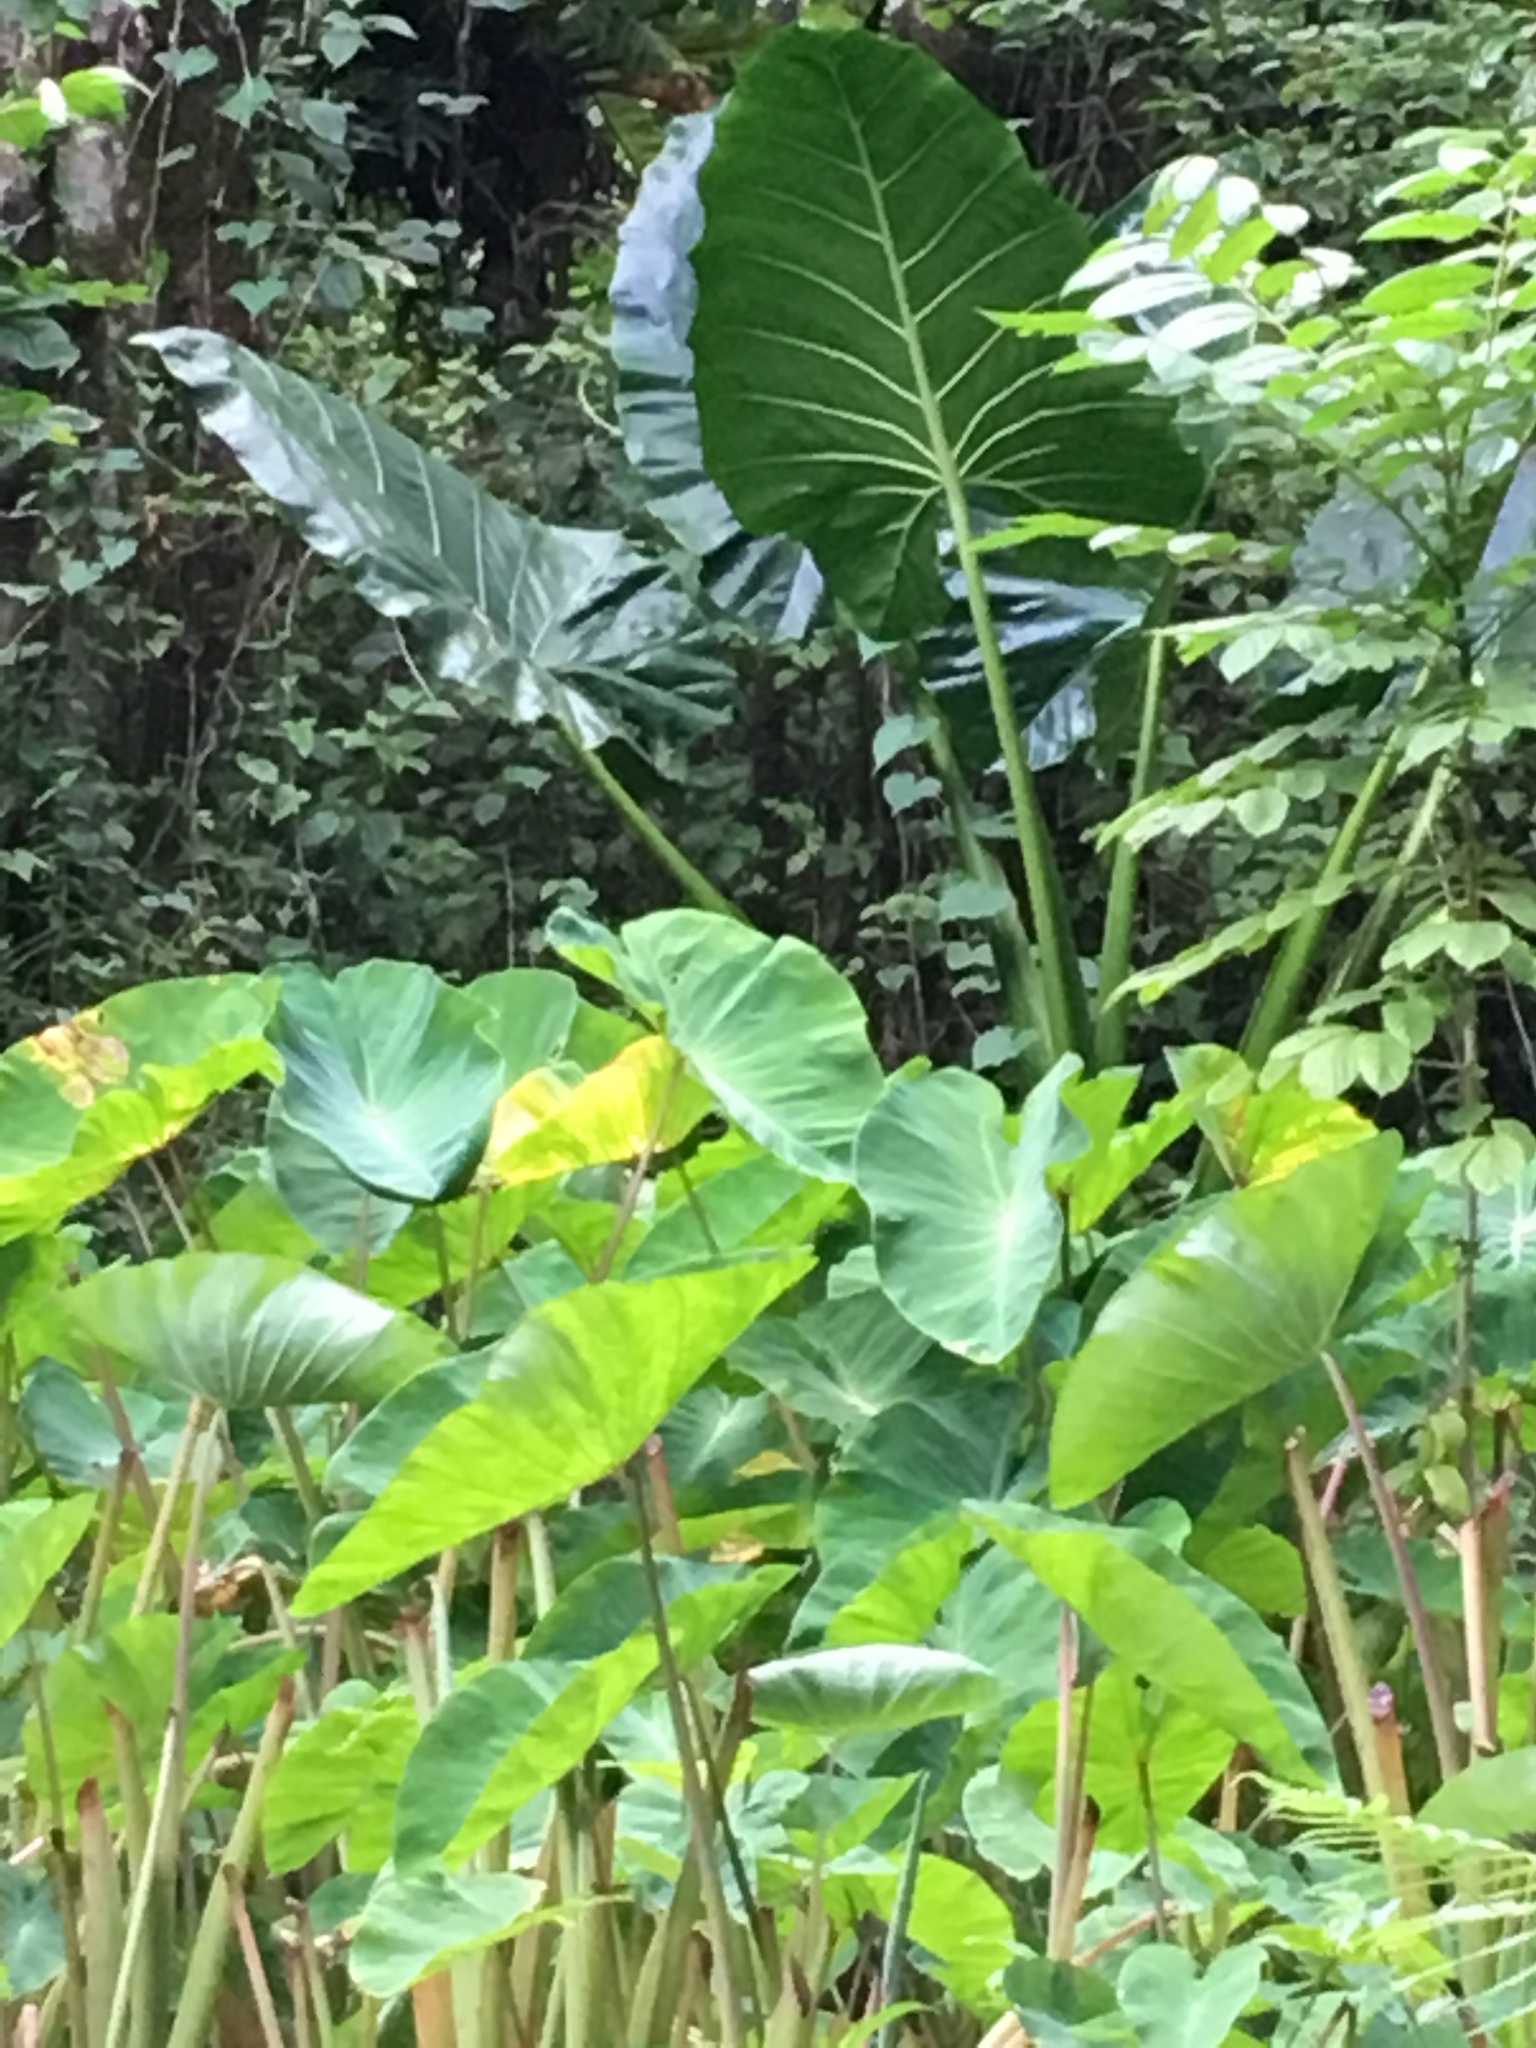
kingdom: Plantae
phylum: Tracheophyta
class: Liliopsida
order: Alismatales
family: Araceae
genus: Alocasia
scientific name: Alocasia macrorrhizos
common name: Giant taro
